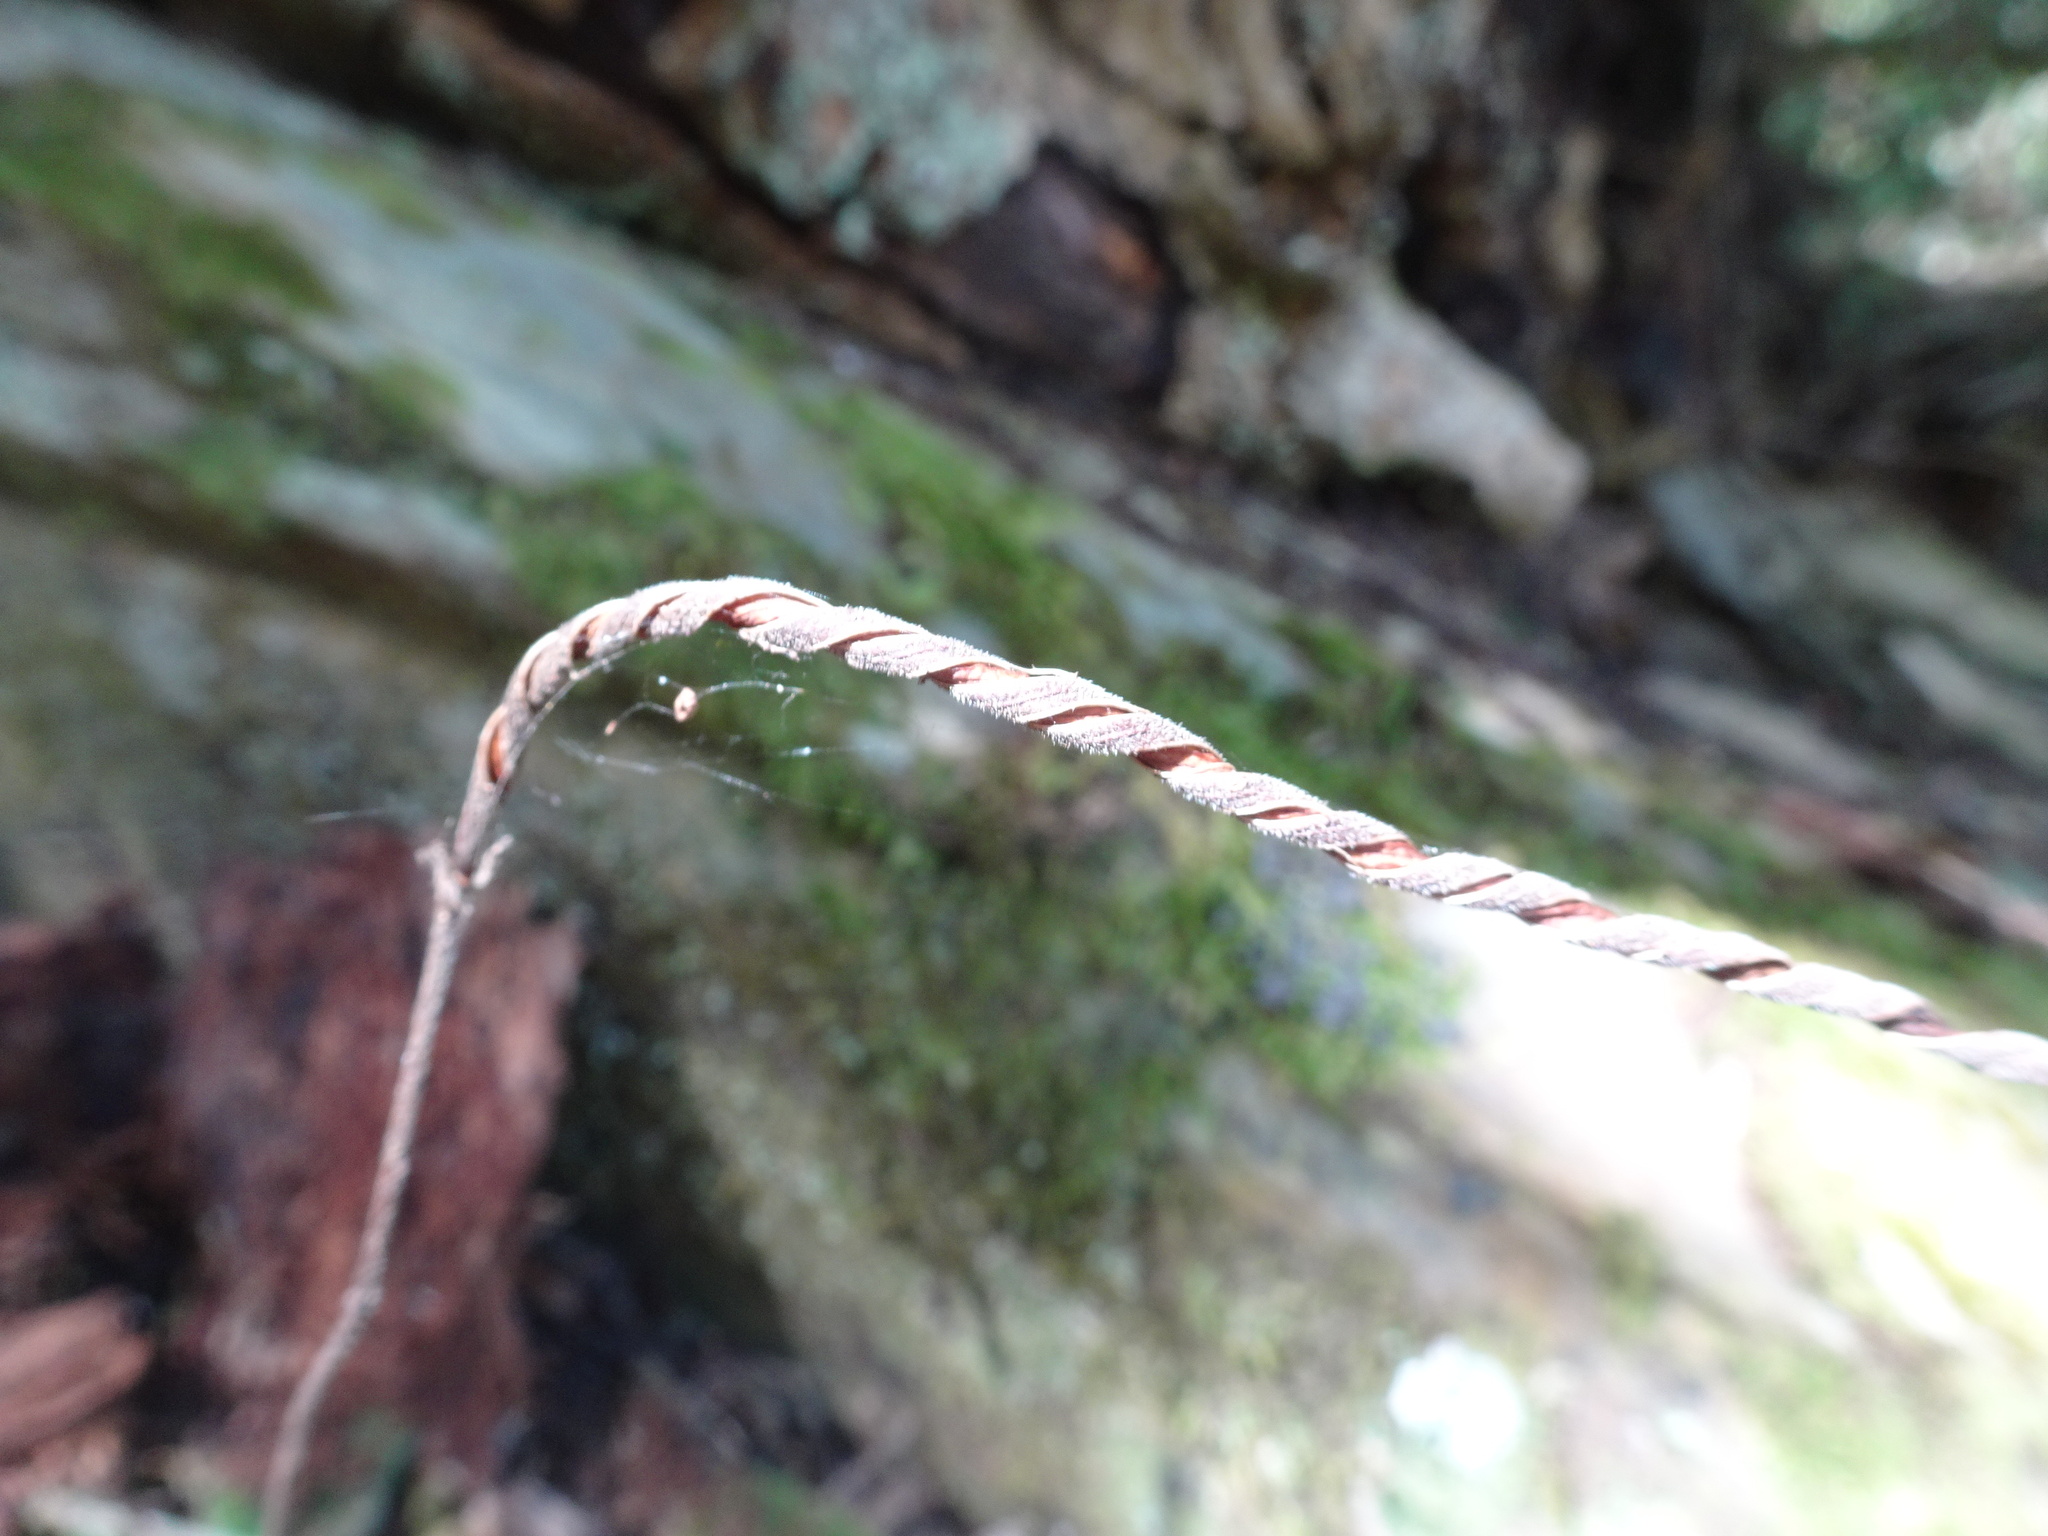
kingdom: Plantae
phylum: Tracheophyta
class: Magnoliopsida
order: Lamiales
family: Gesneriaceae
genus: Streptocarpus
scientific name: Streptocarpus rexii
